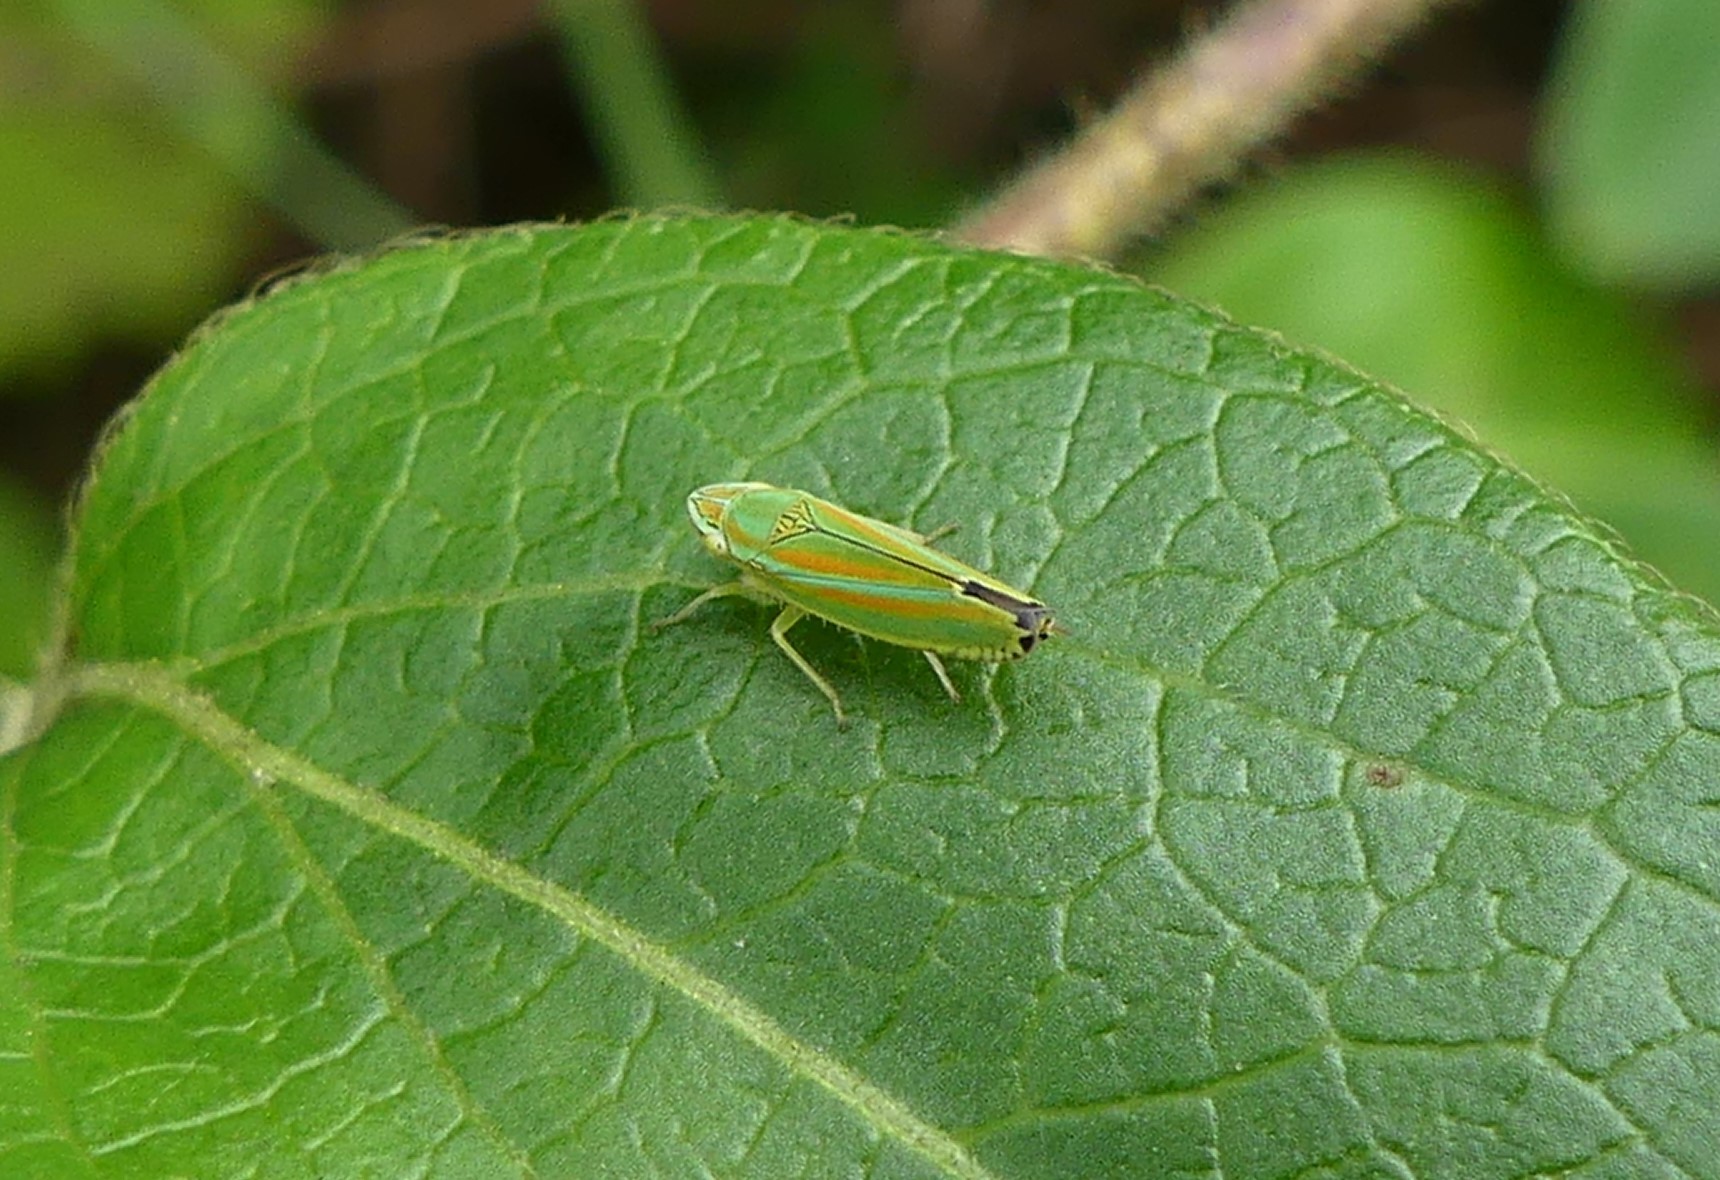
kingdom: Animalia
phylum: Arthropoda
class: Insecta
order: Hemiptera
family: Cicadellidae
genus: Graphocephala
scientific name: Graphocephala versuta
